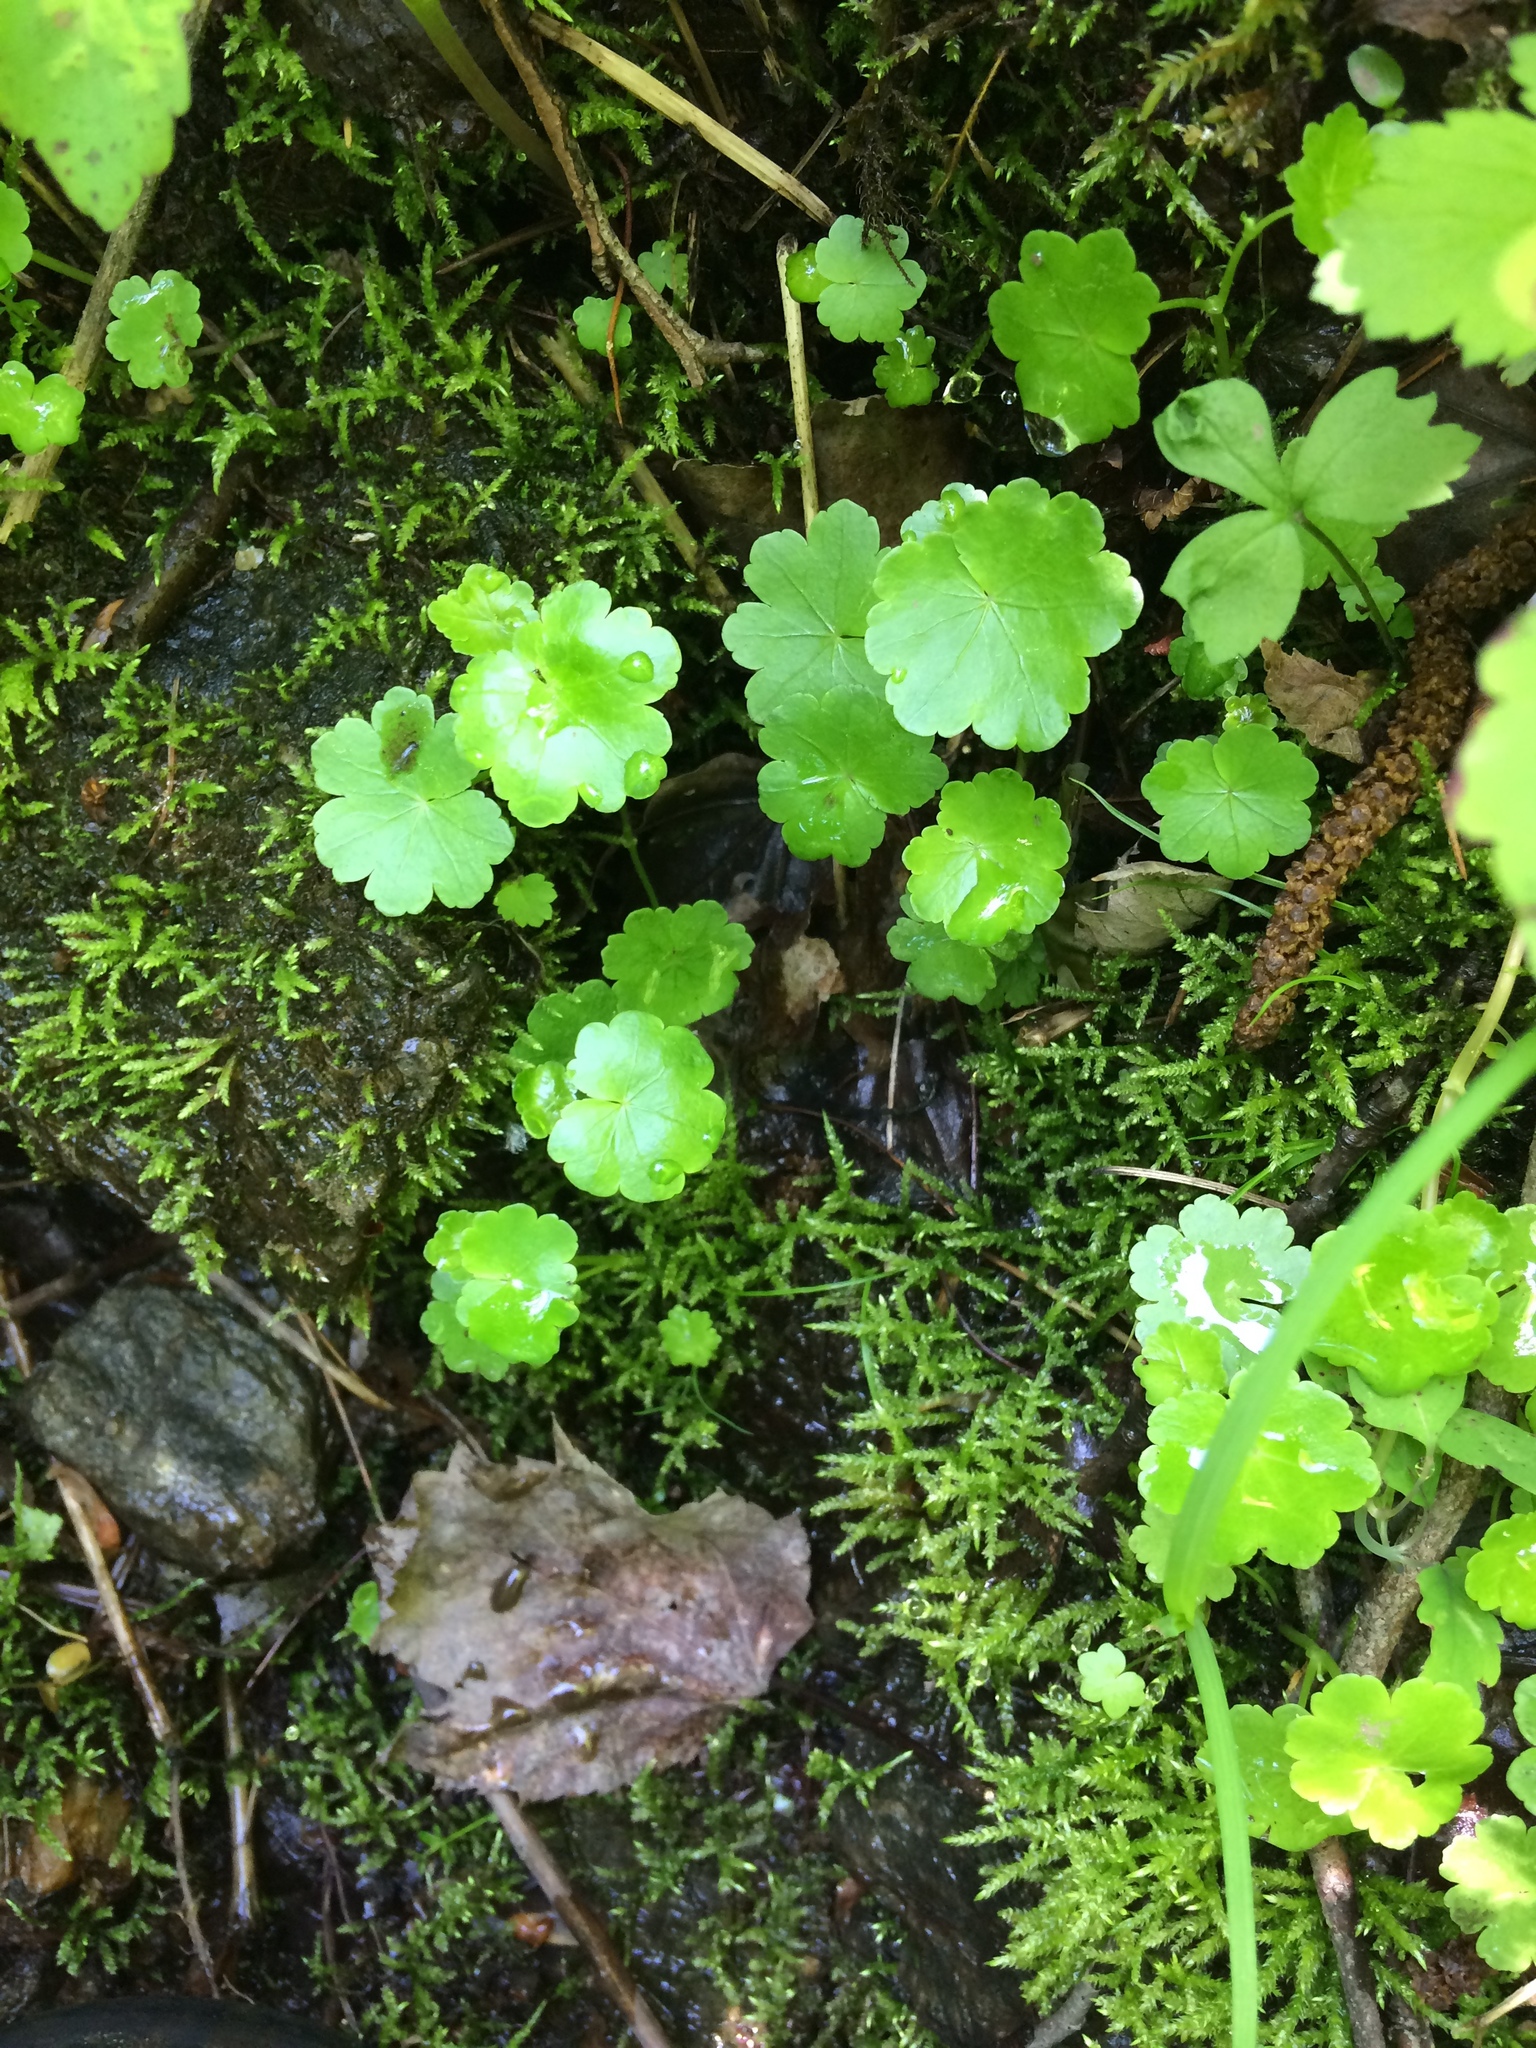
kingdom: Plantae
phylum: Tracheophyta
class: Magnoliopsida
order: Apiales
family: Araliaceae
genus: Hydrocotyle
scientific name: Hydrocotyle americana
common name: American water-pennywort
